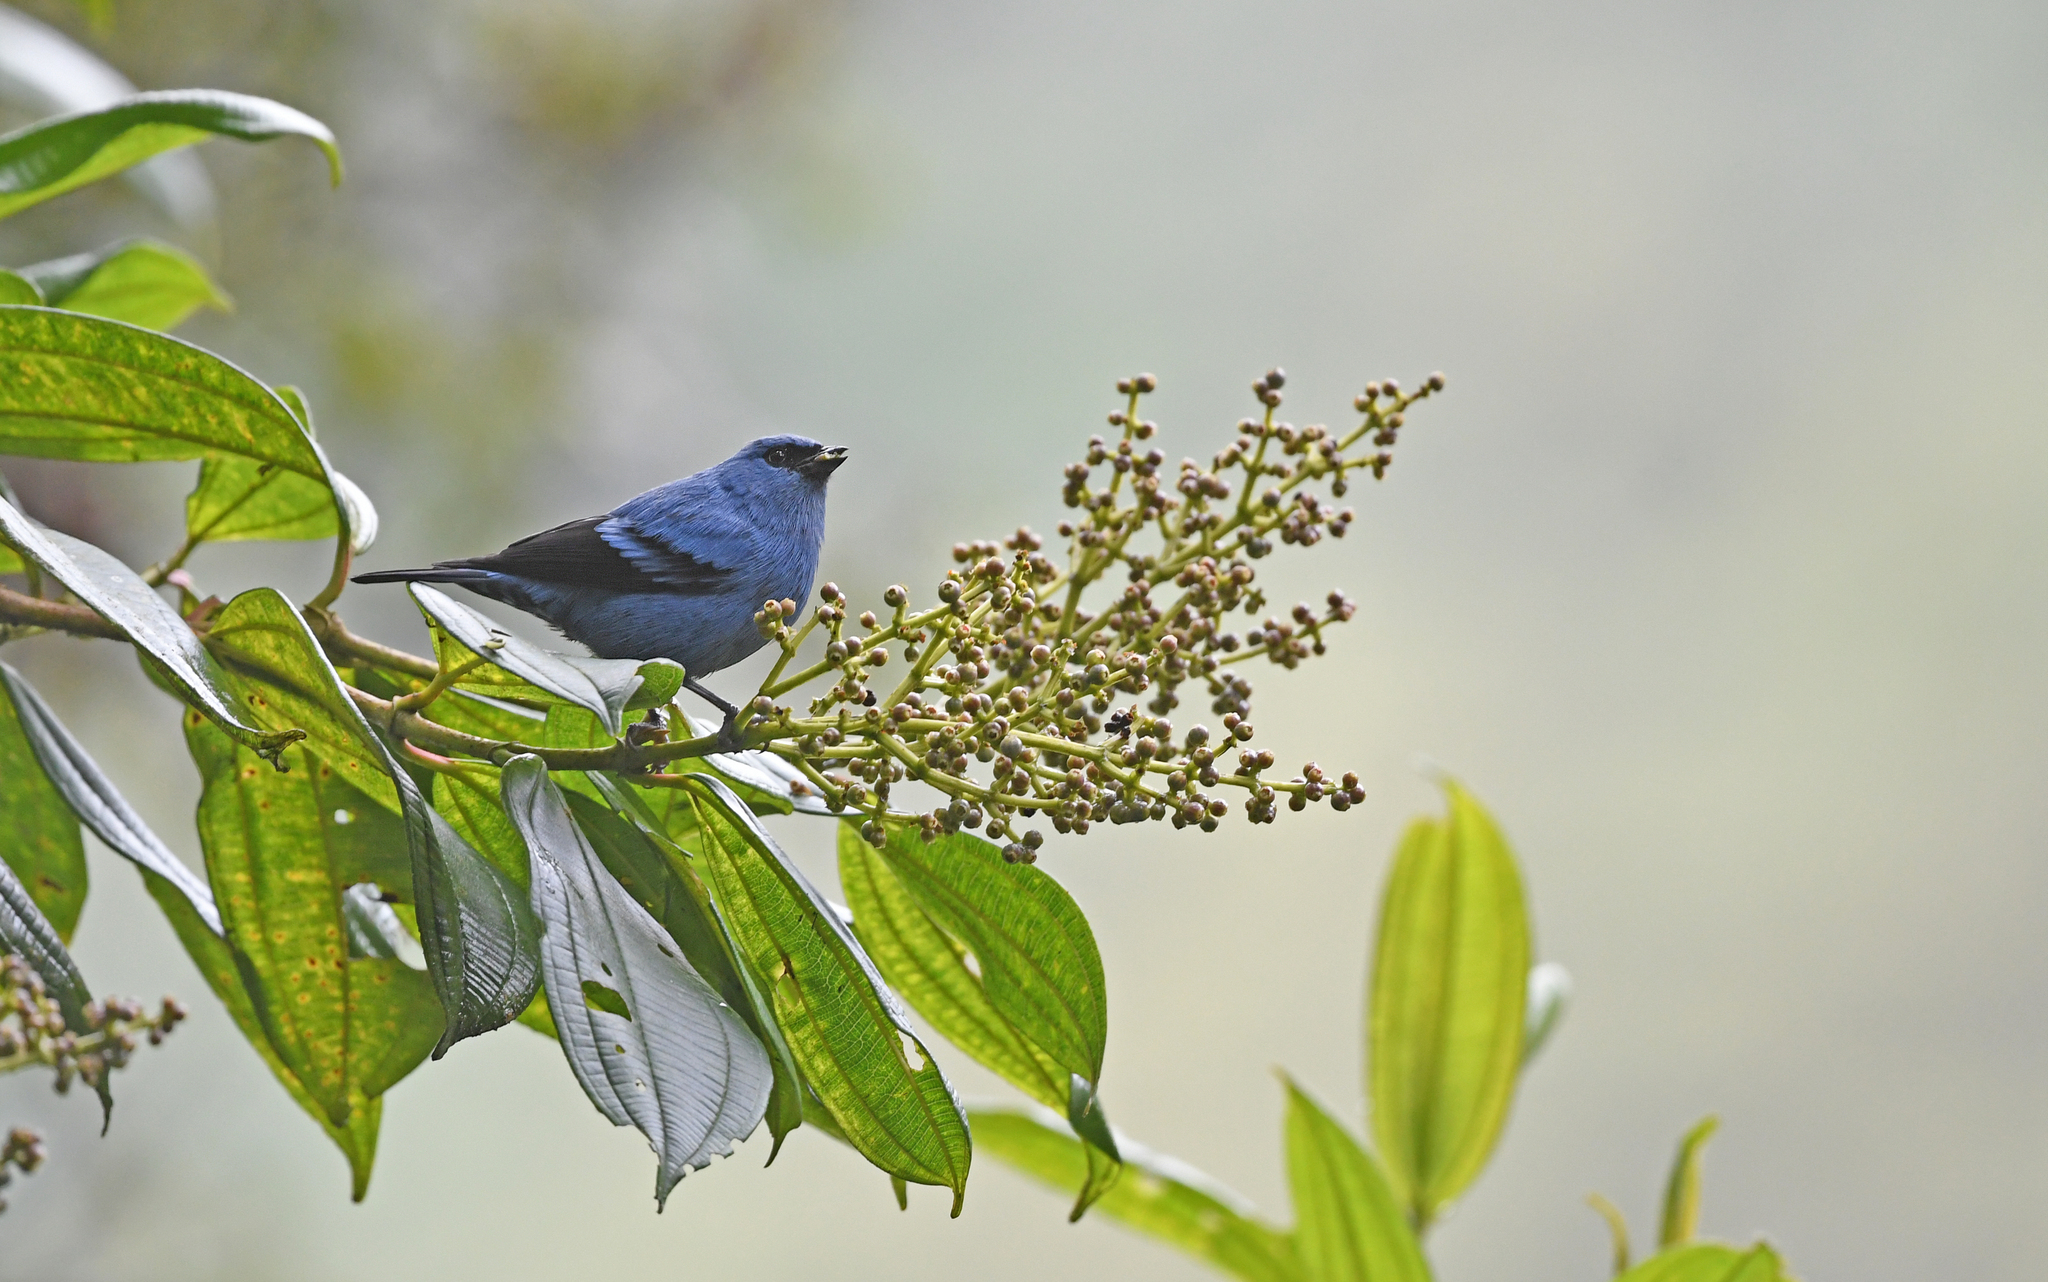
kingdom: Animalia
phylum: Chordata
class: Aves
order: Passeriformes
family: Thraupidae
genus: Tangara
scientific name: Tangara vassorii
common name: Blue-and-black tanager
